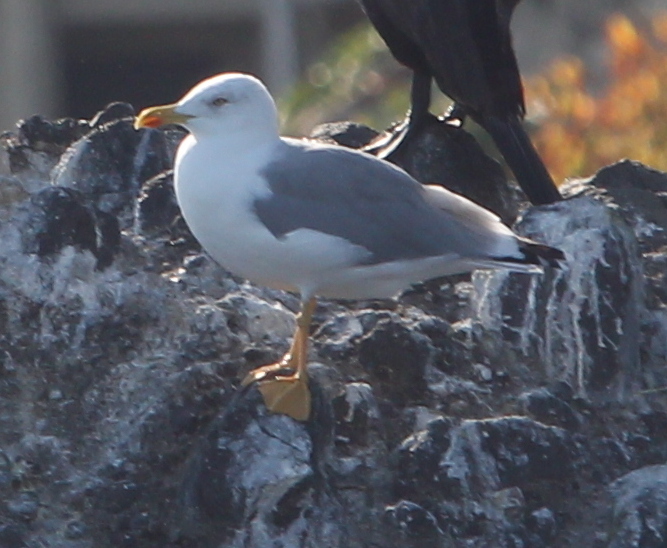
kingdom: Animalia
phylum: Chordata
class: Aves
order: Charadriiformes
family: Laridae
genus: Larus
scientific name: Larus michahellis
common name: Yellow-legged gull
